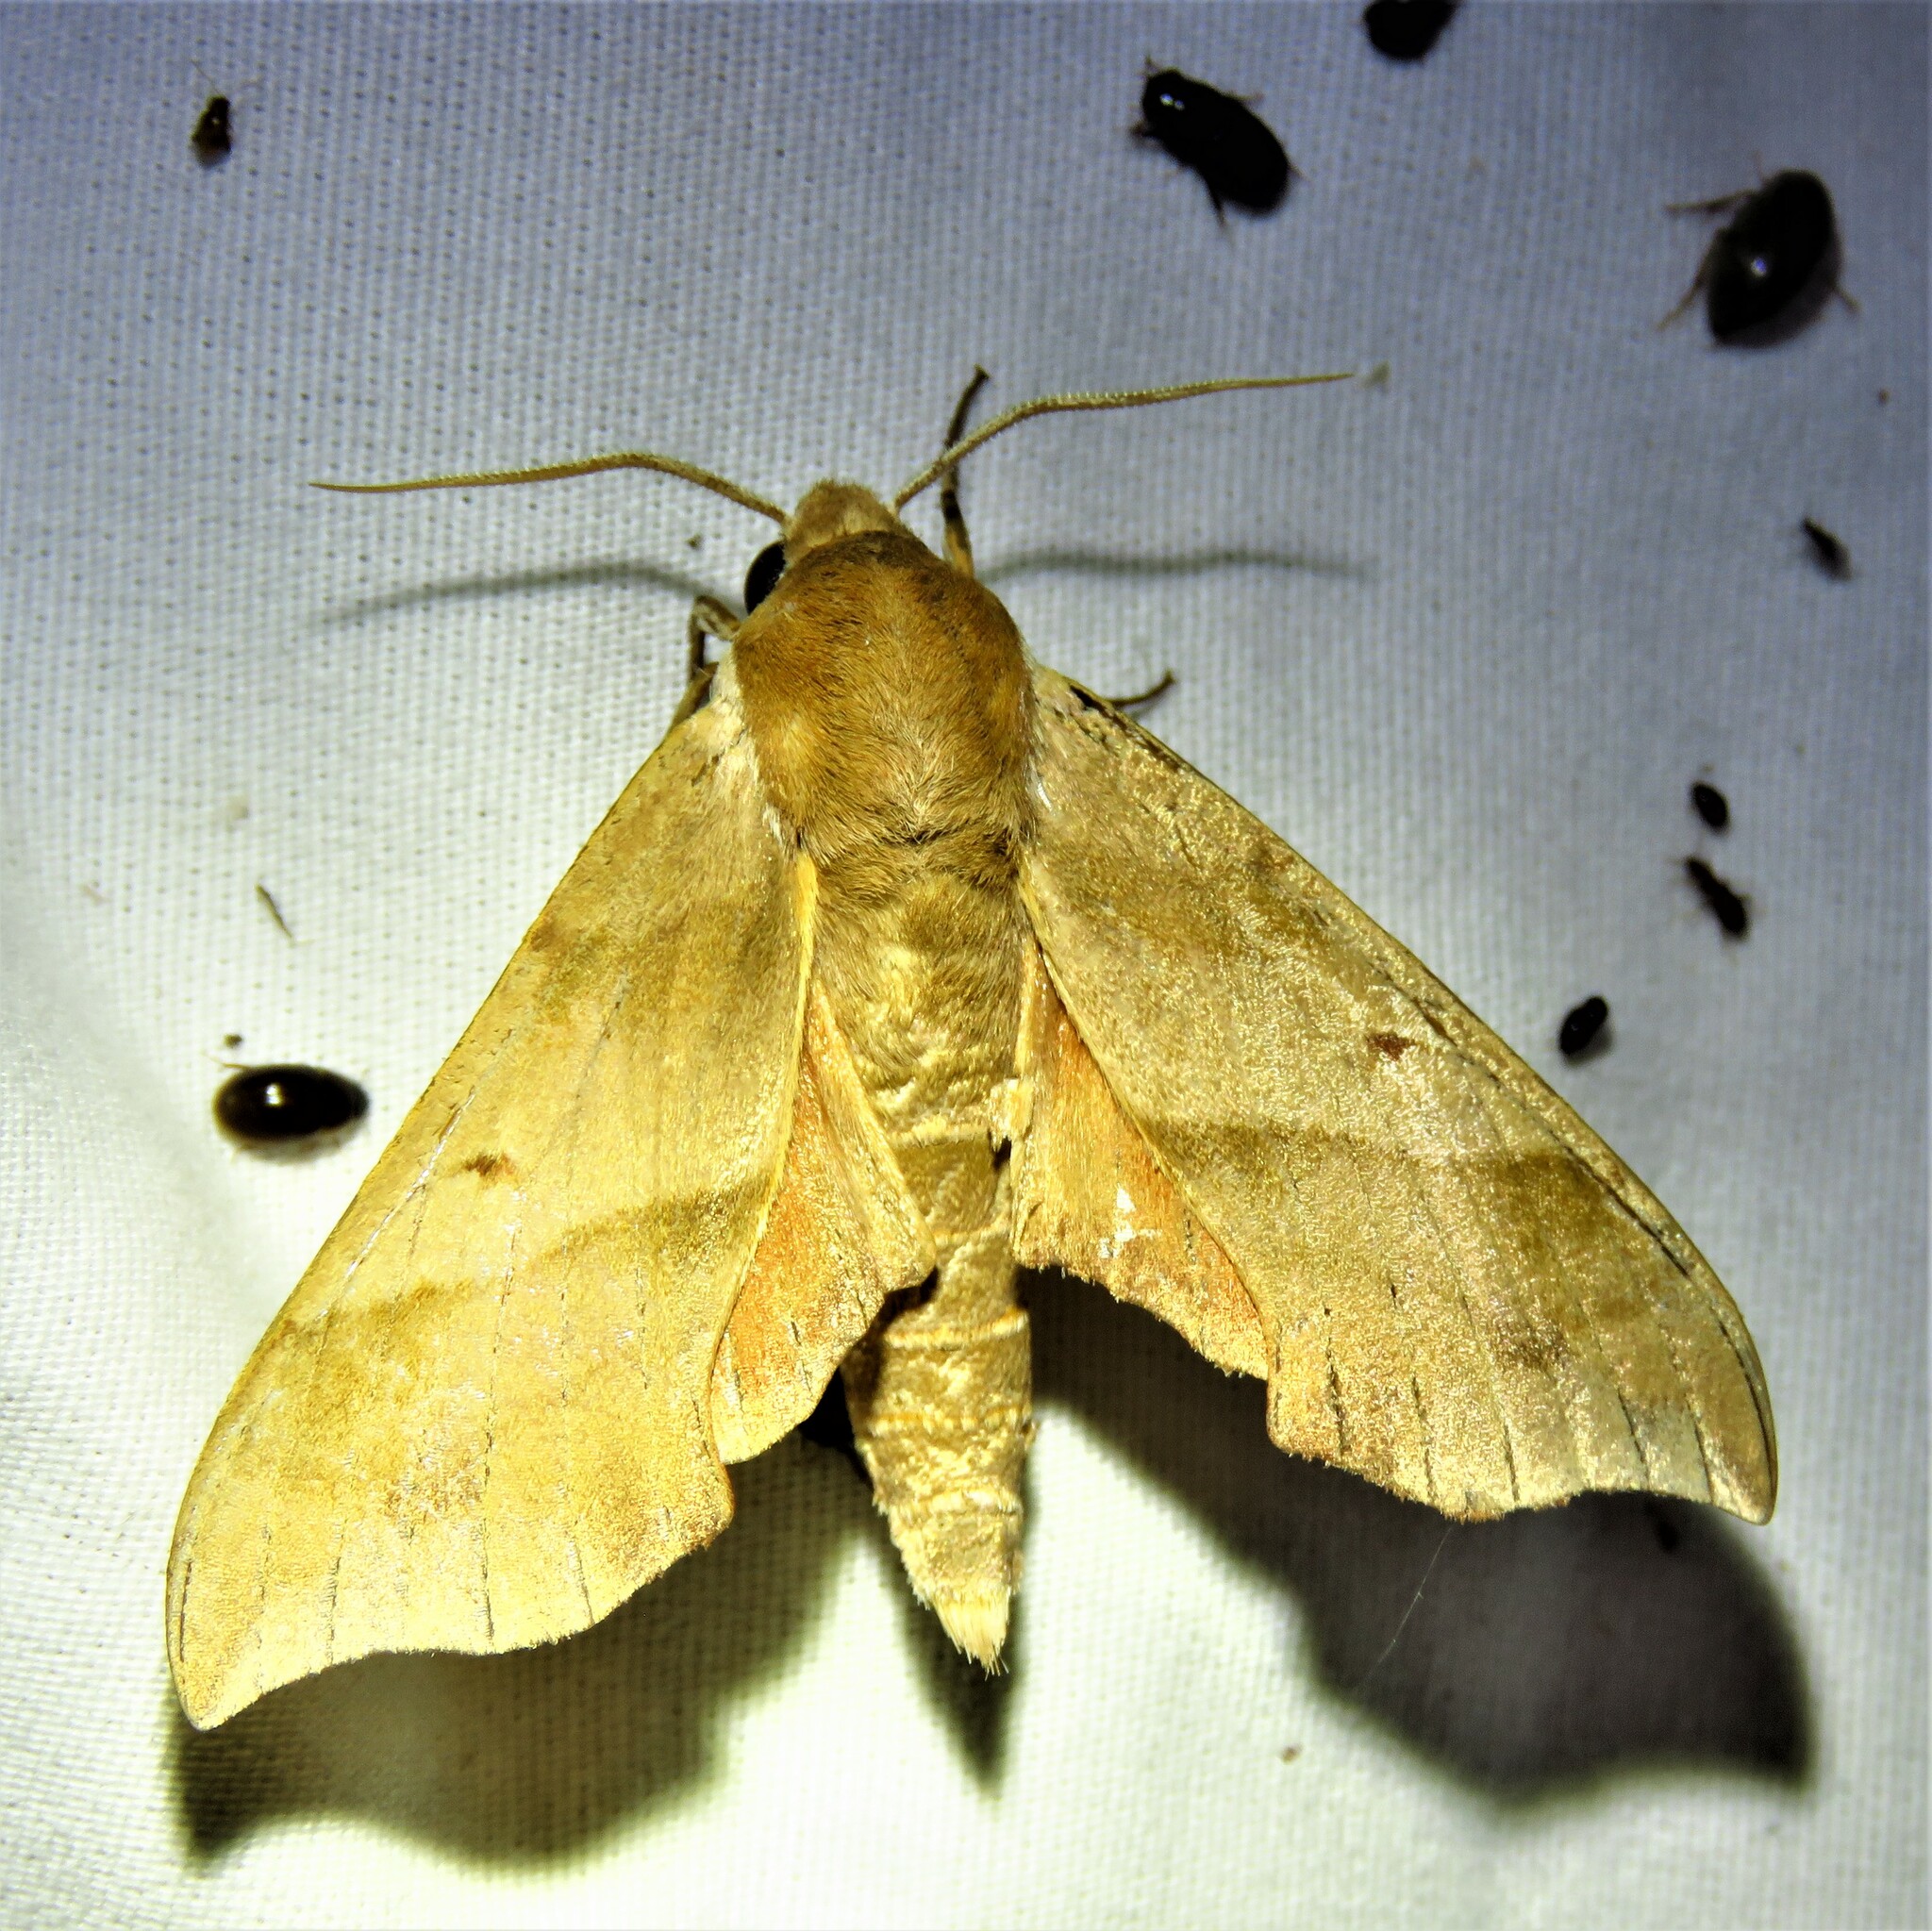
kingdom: Animalia
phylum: Arthropoda
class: Insecta
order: Lepidoptera
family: Sphingidae
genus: Darapsa
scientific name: Darapsa myron
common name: Hog sphinx
